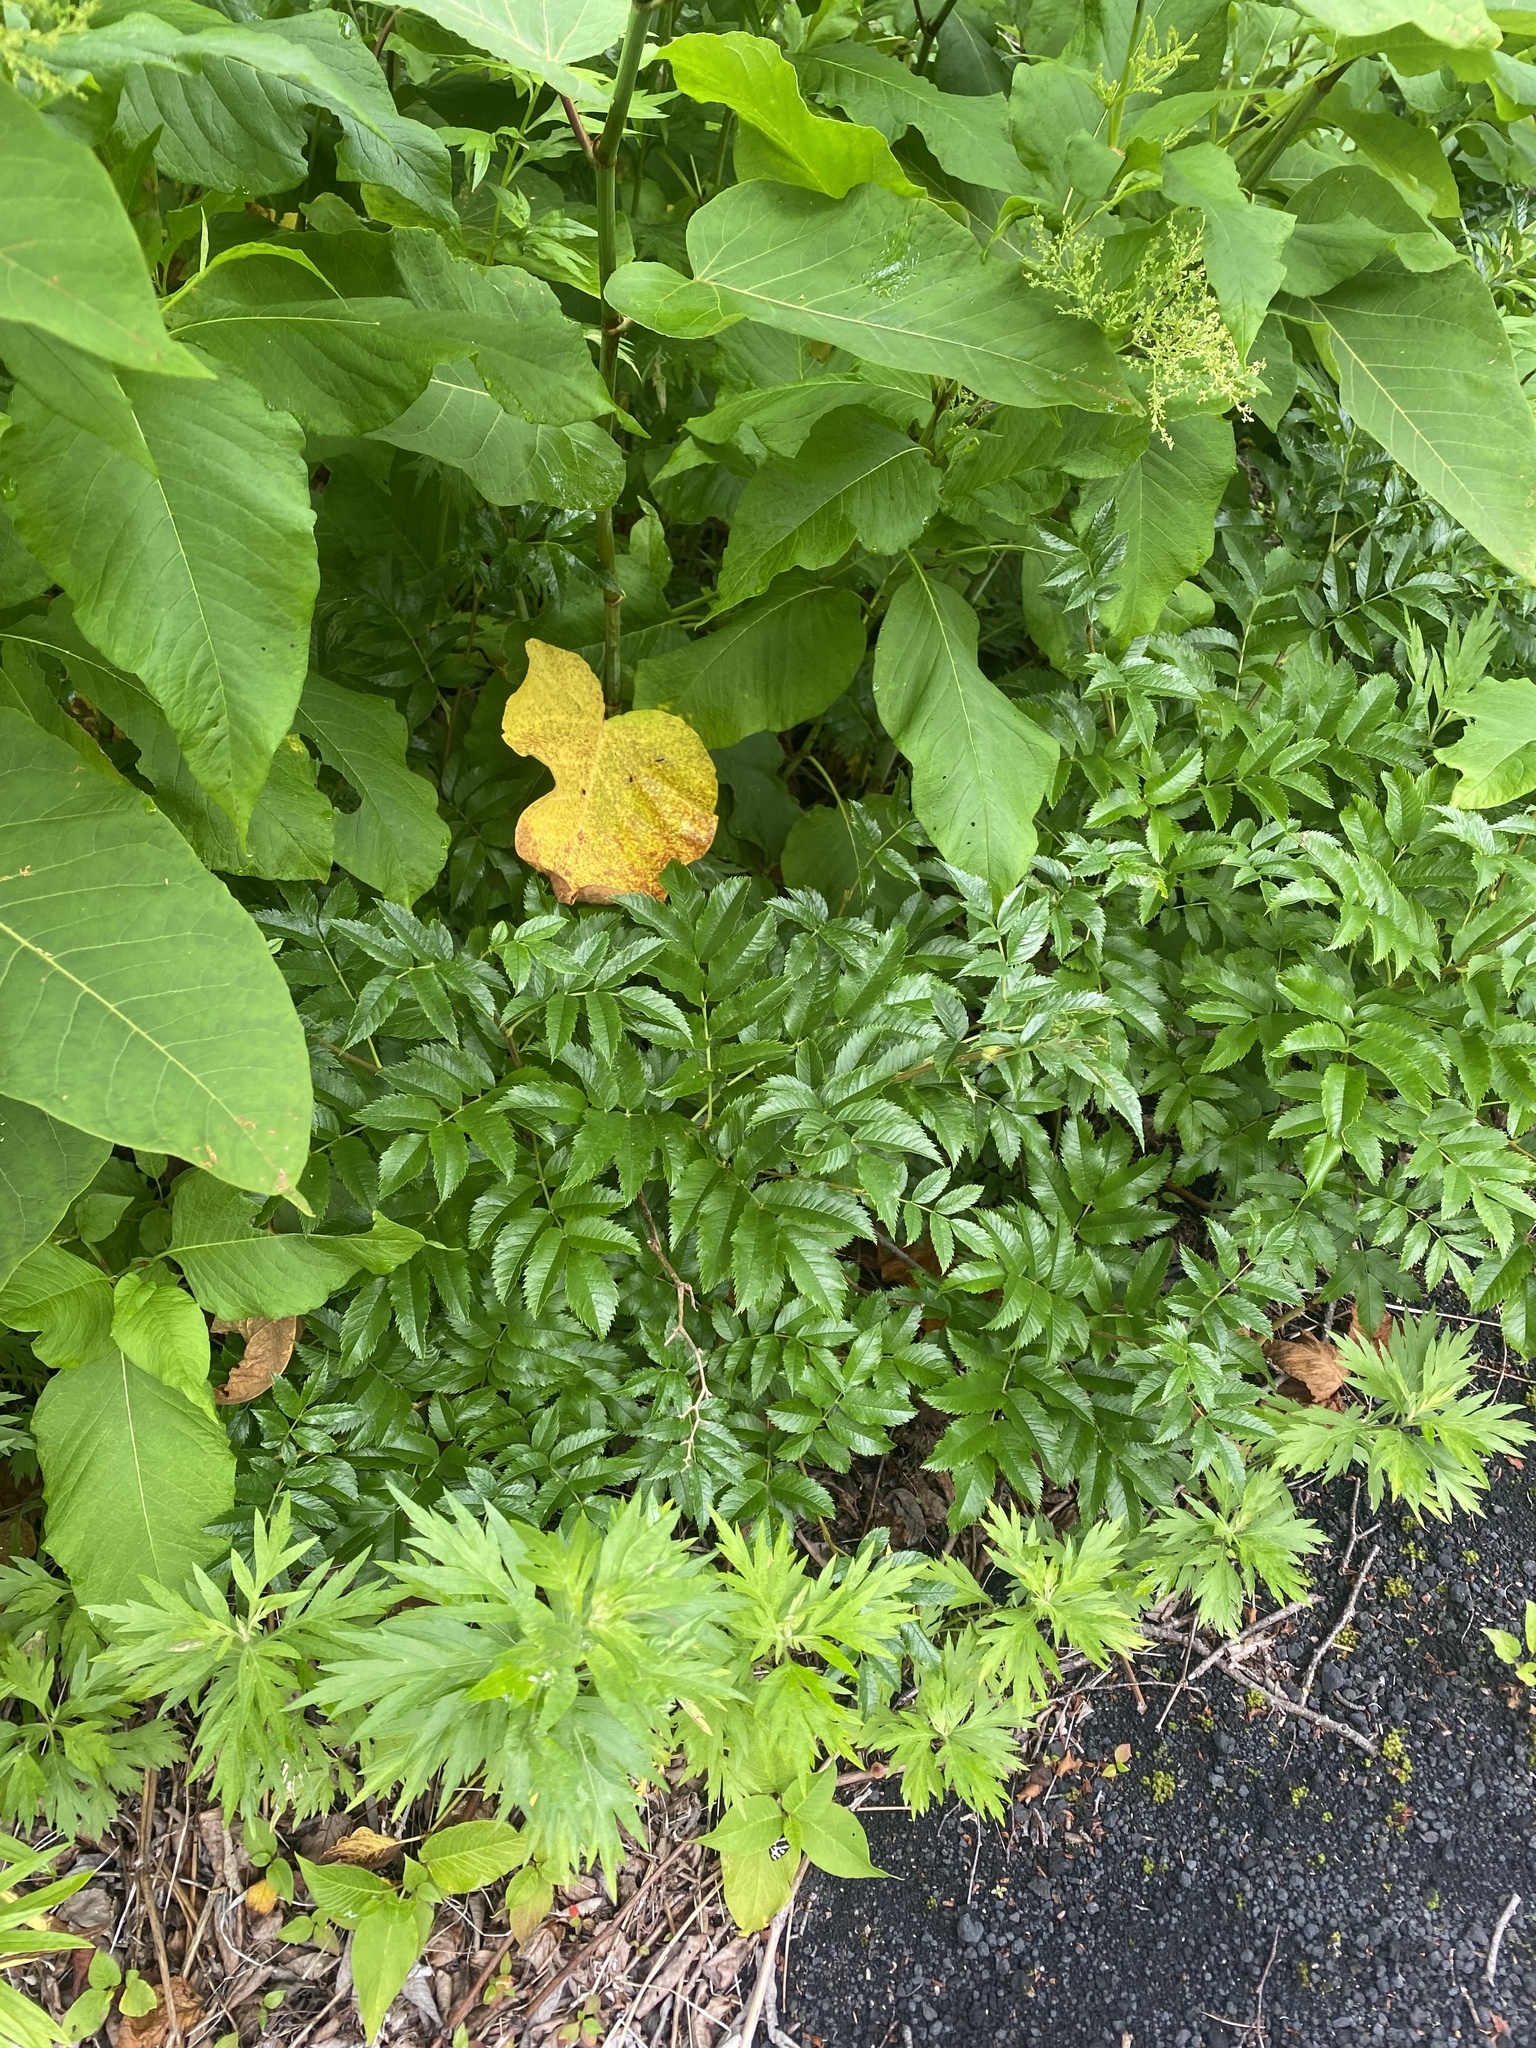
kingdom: Plantae
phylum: Tracheophyta
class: Magnoliopsida
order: Rosales
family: Rosaceae
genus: Sorbus
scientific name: Sorbus sambucifolia
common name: Siberian mountain-ash
